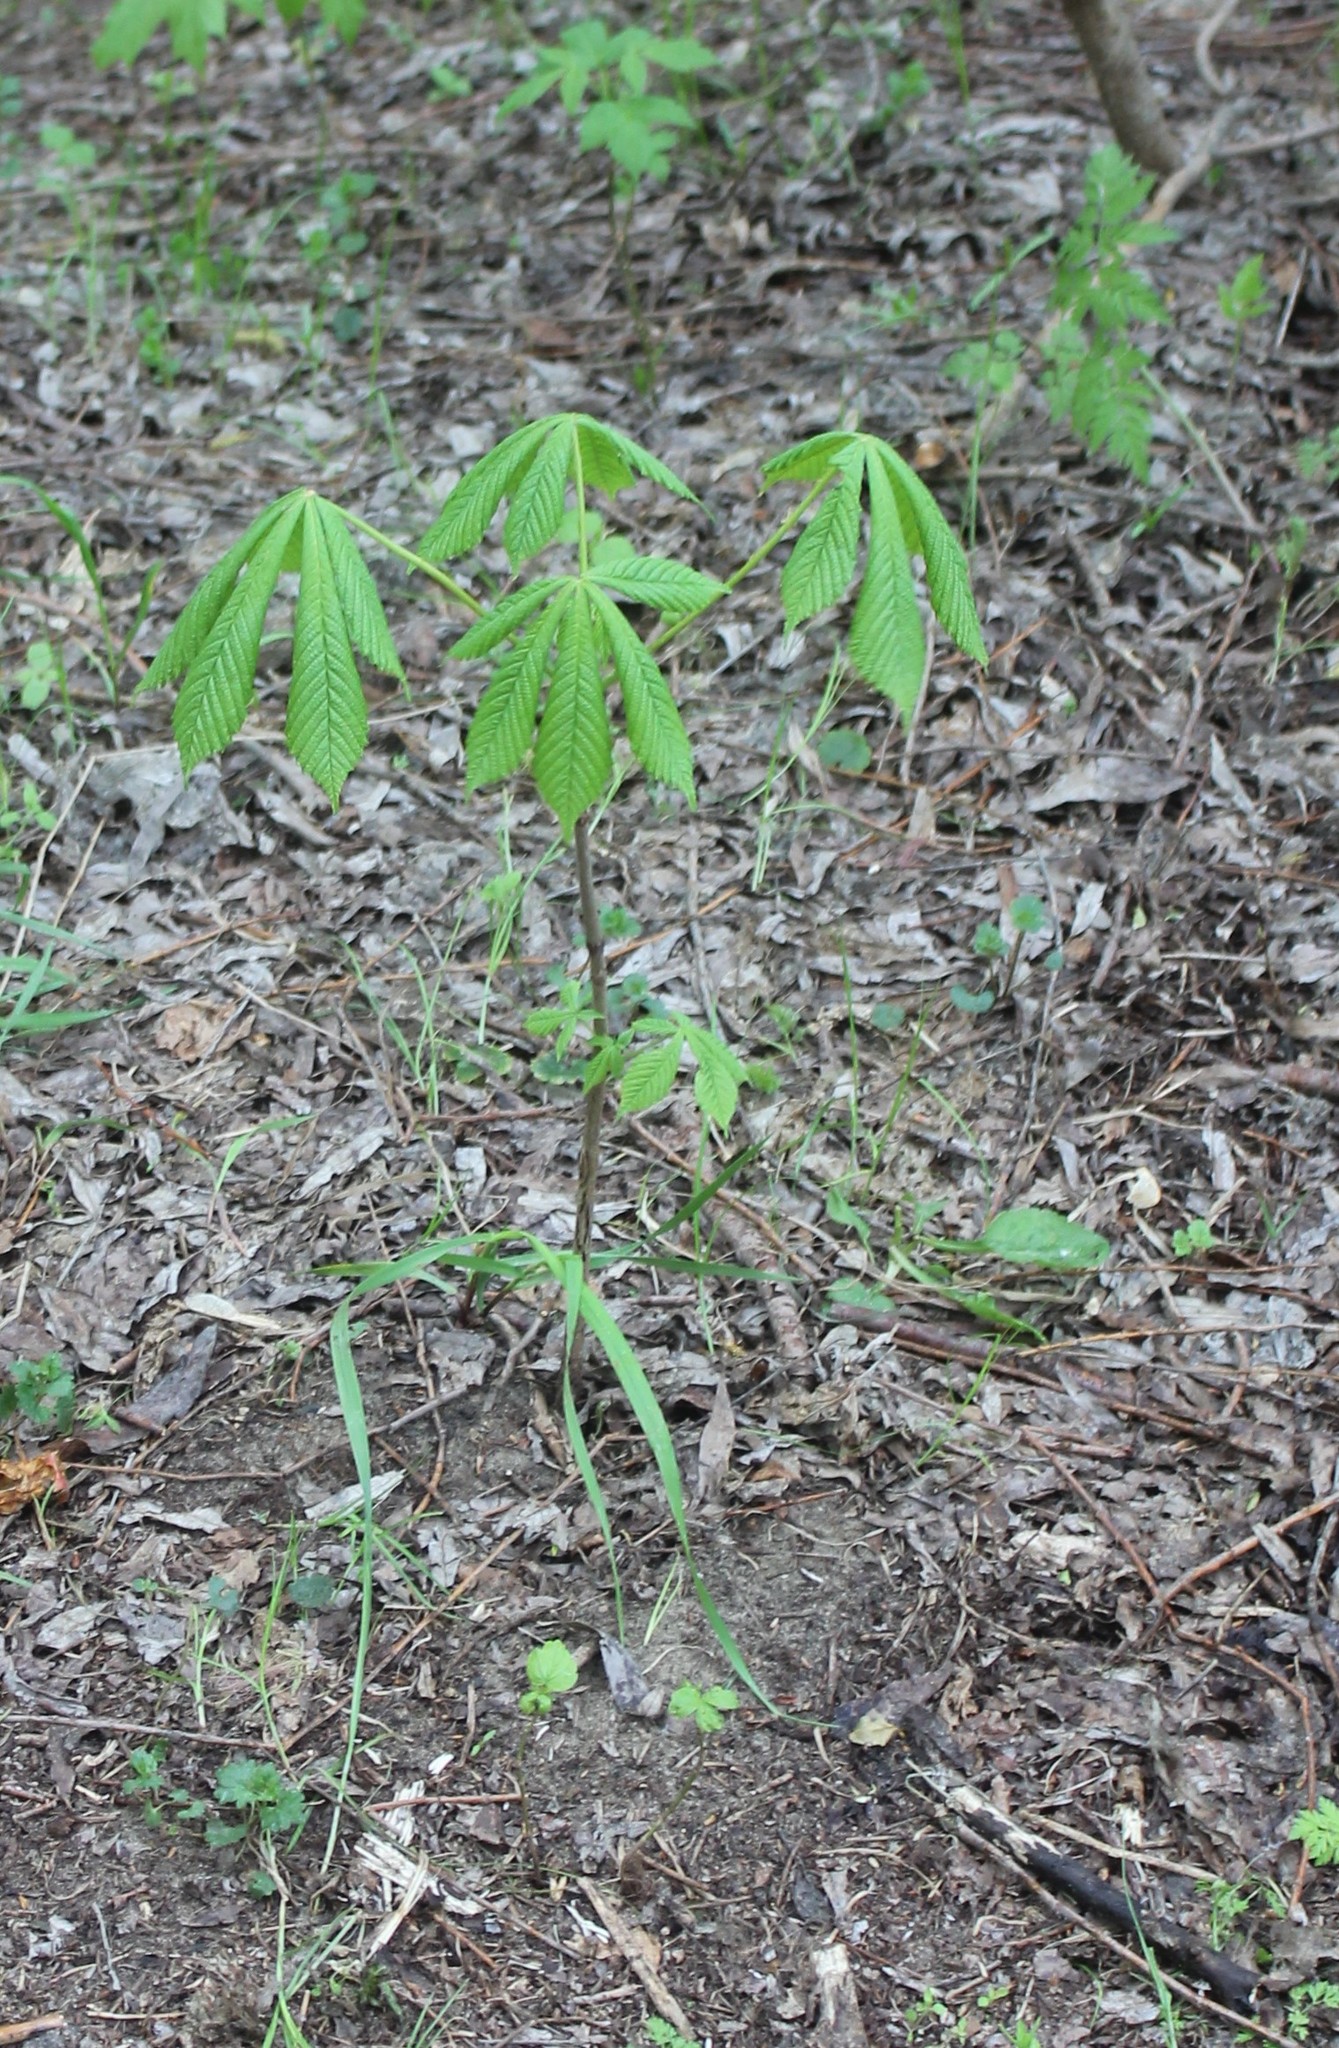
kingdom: Plantae
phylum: Tracheophyta
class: Magnoliopsida
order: Sapindales
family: Sapindaceae
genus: Aesculus
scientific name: Aesculus hippocastanum
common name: Horse-chestnut
